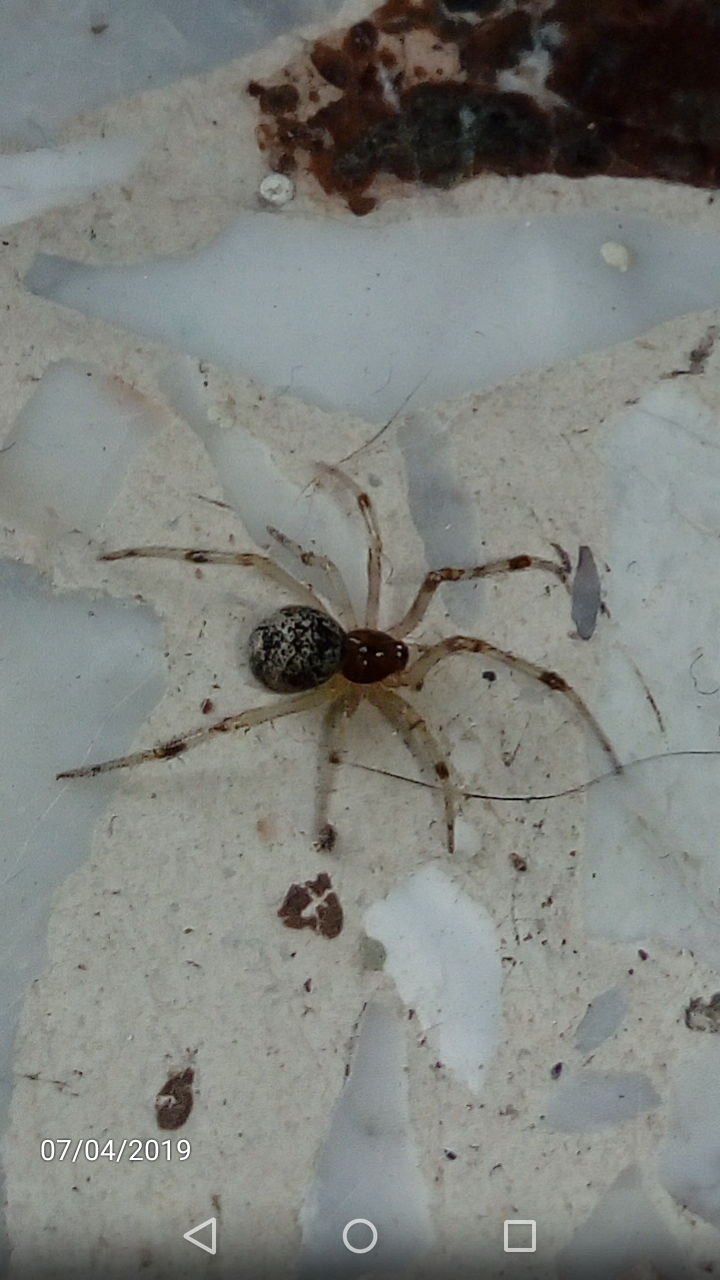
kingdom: Animalia
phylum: Arthropoda
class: Arachnida
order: Araneae
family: Theridiidae
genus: Parasteatoda
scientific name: Parasteatoda tepidariorum
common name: Common house spider
